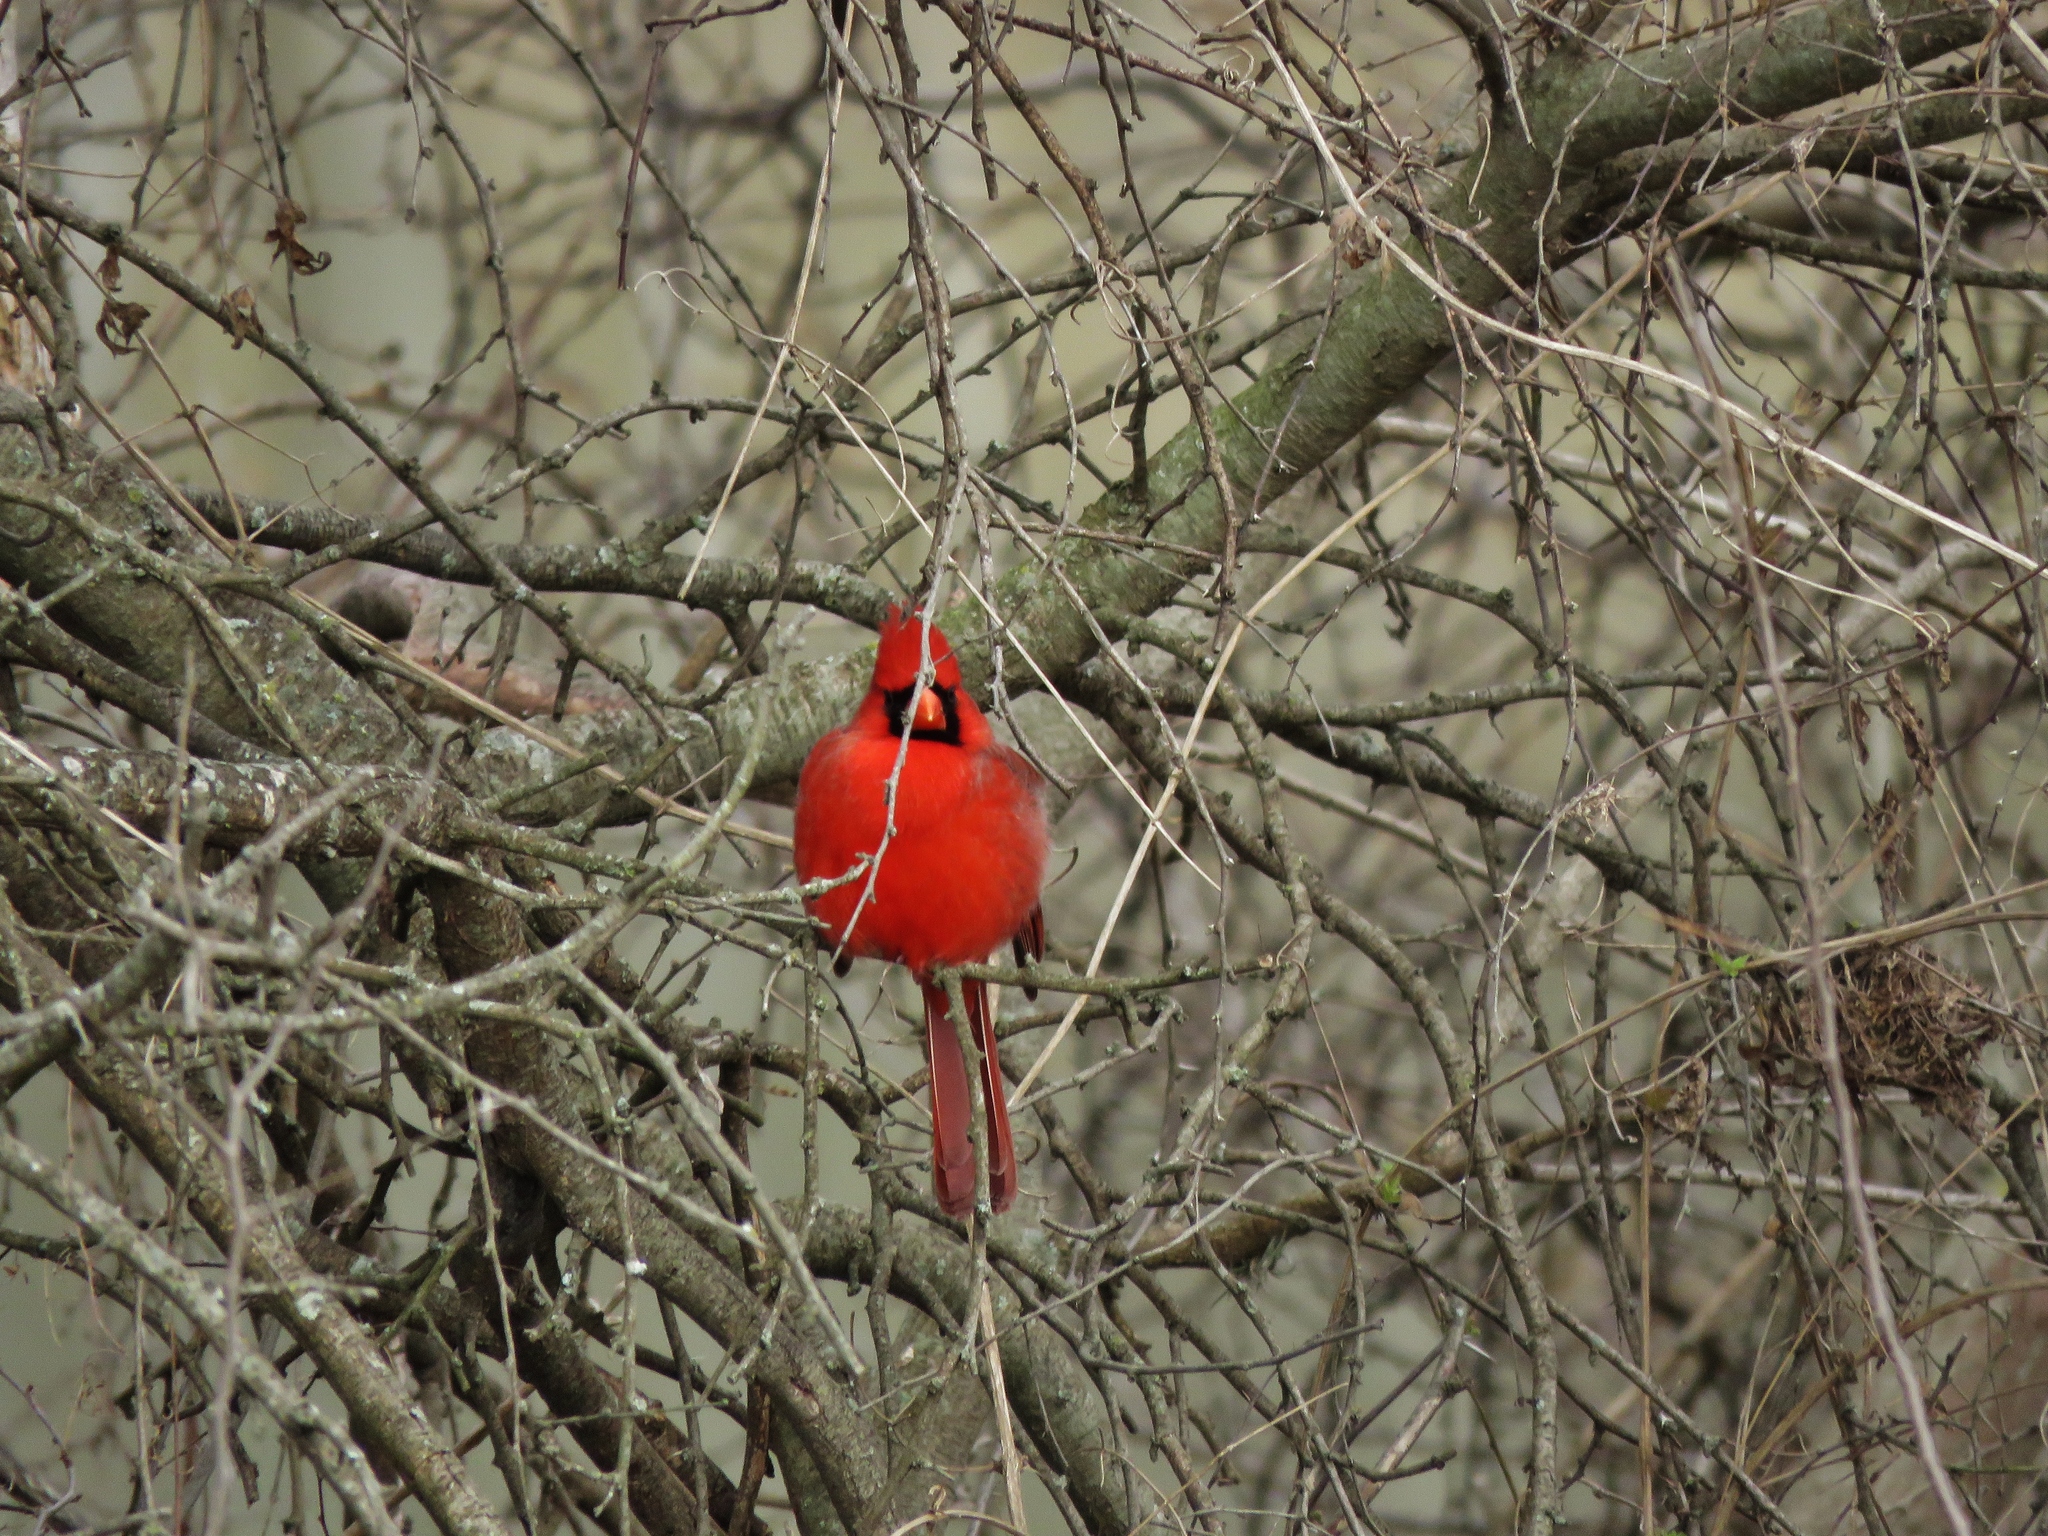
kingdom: Animalia
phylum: Chordata
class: Aves
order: Passeriformes
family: Cardinalidae
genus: Cardinalis
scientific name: Cardinalis cardinalis
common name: Northern cardinal
